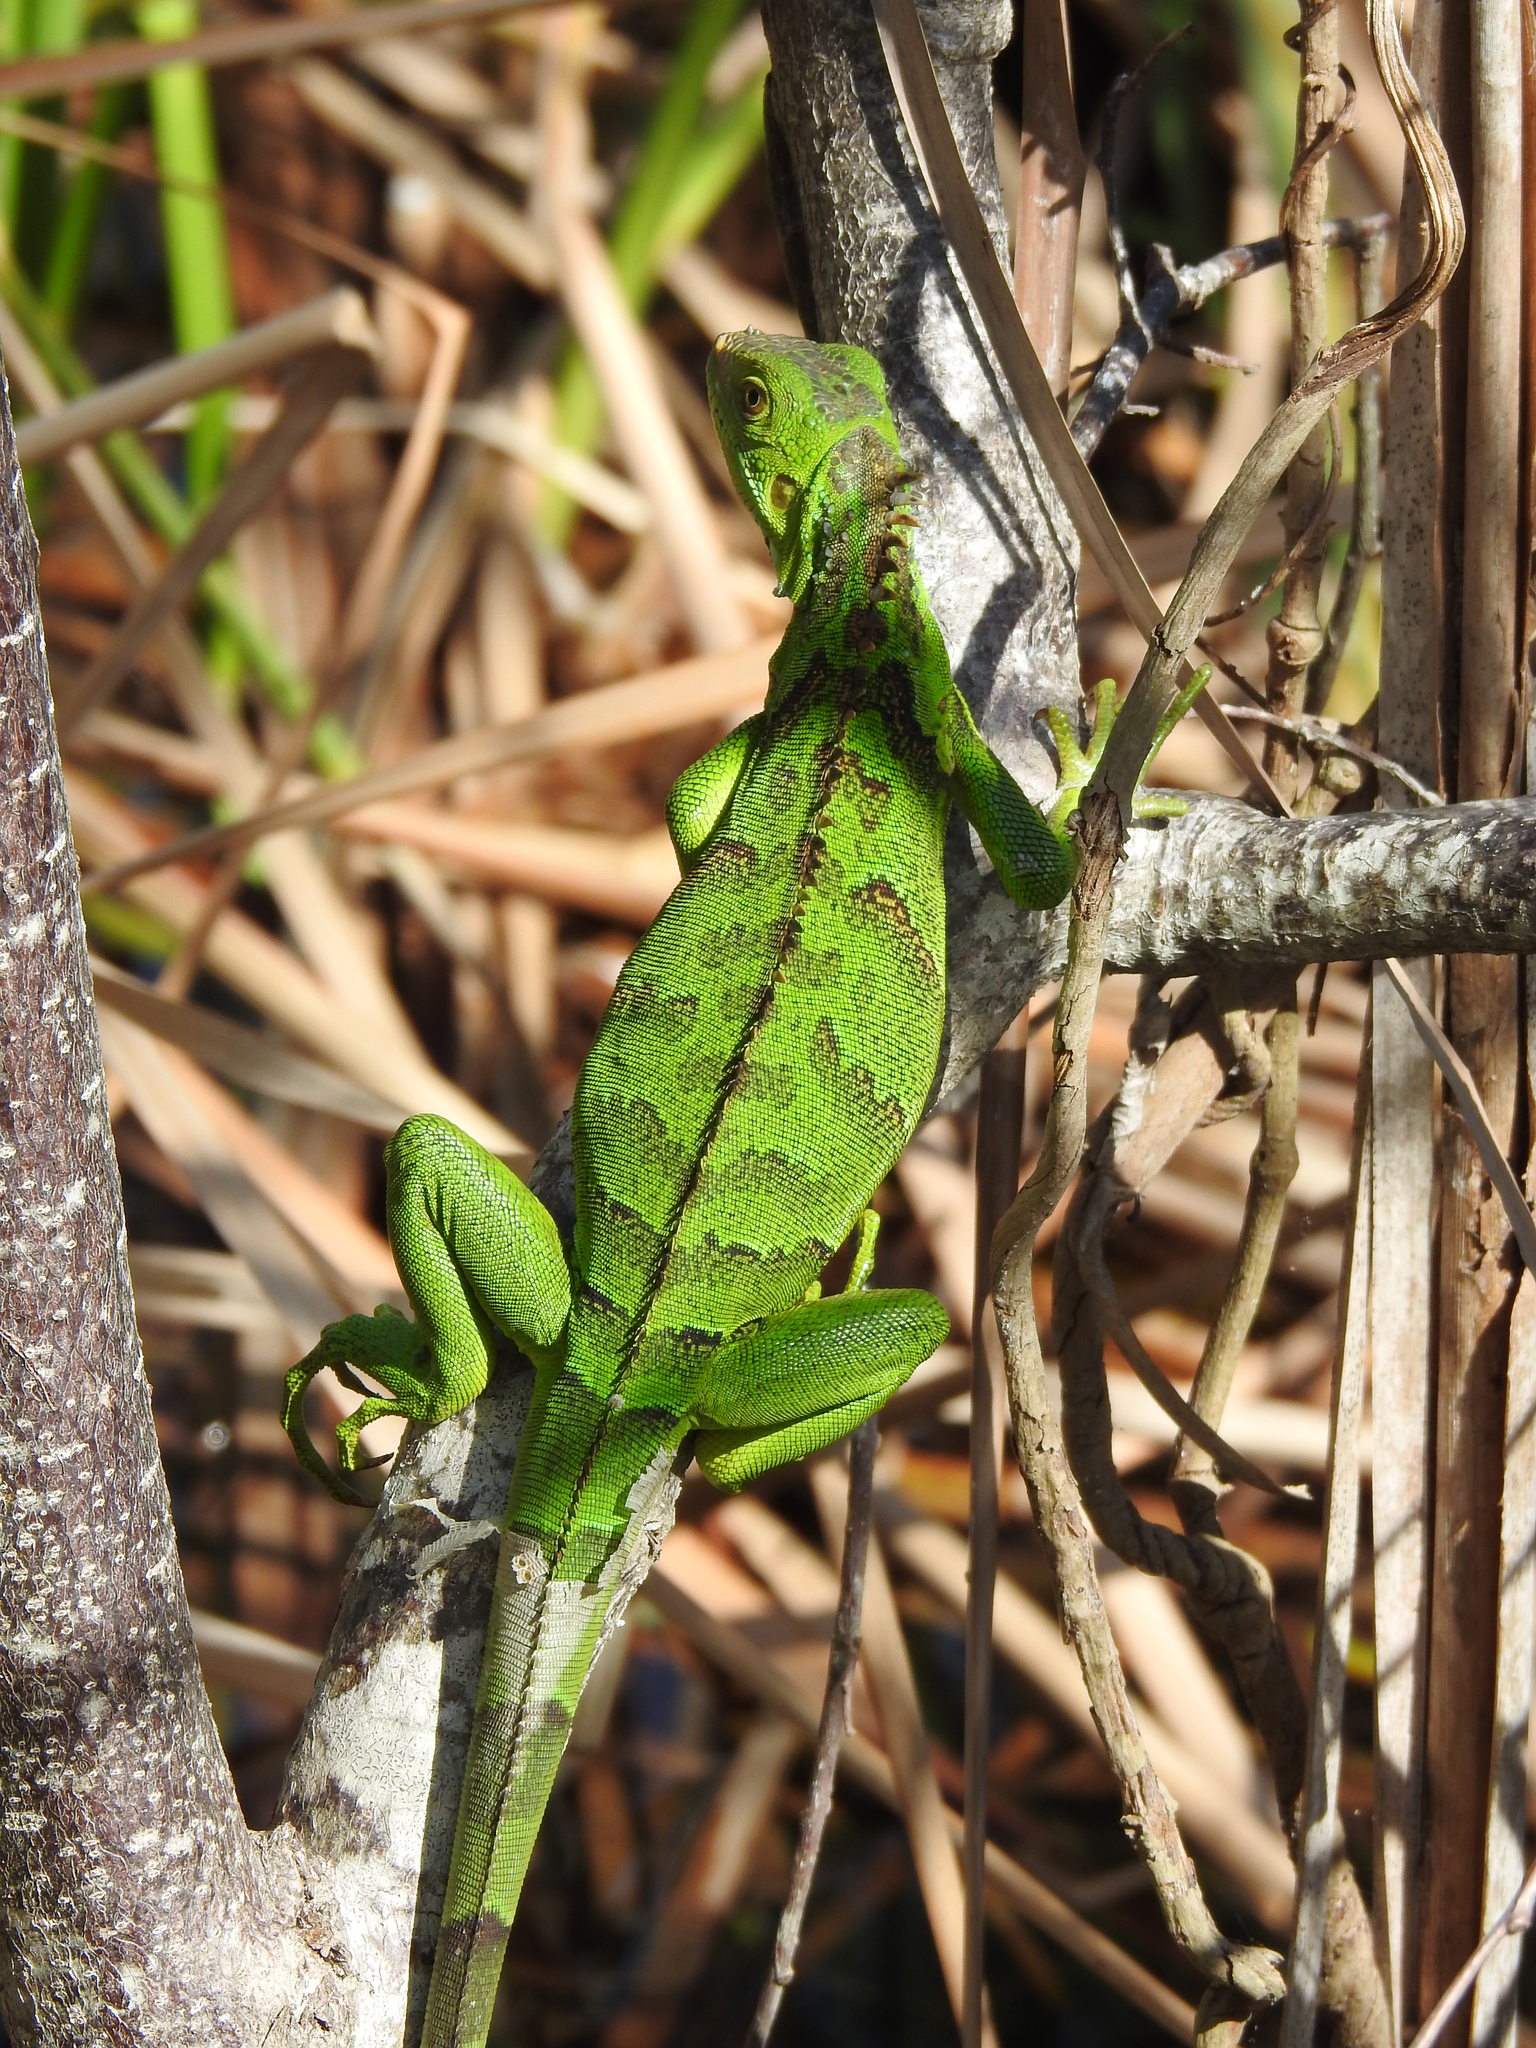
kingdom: Animalia
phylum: Chordata
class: Squamata
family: Iguanidae
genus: Iguana
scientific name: Iguana iguana
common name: Green iguana
